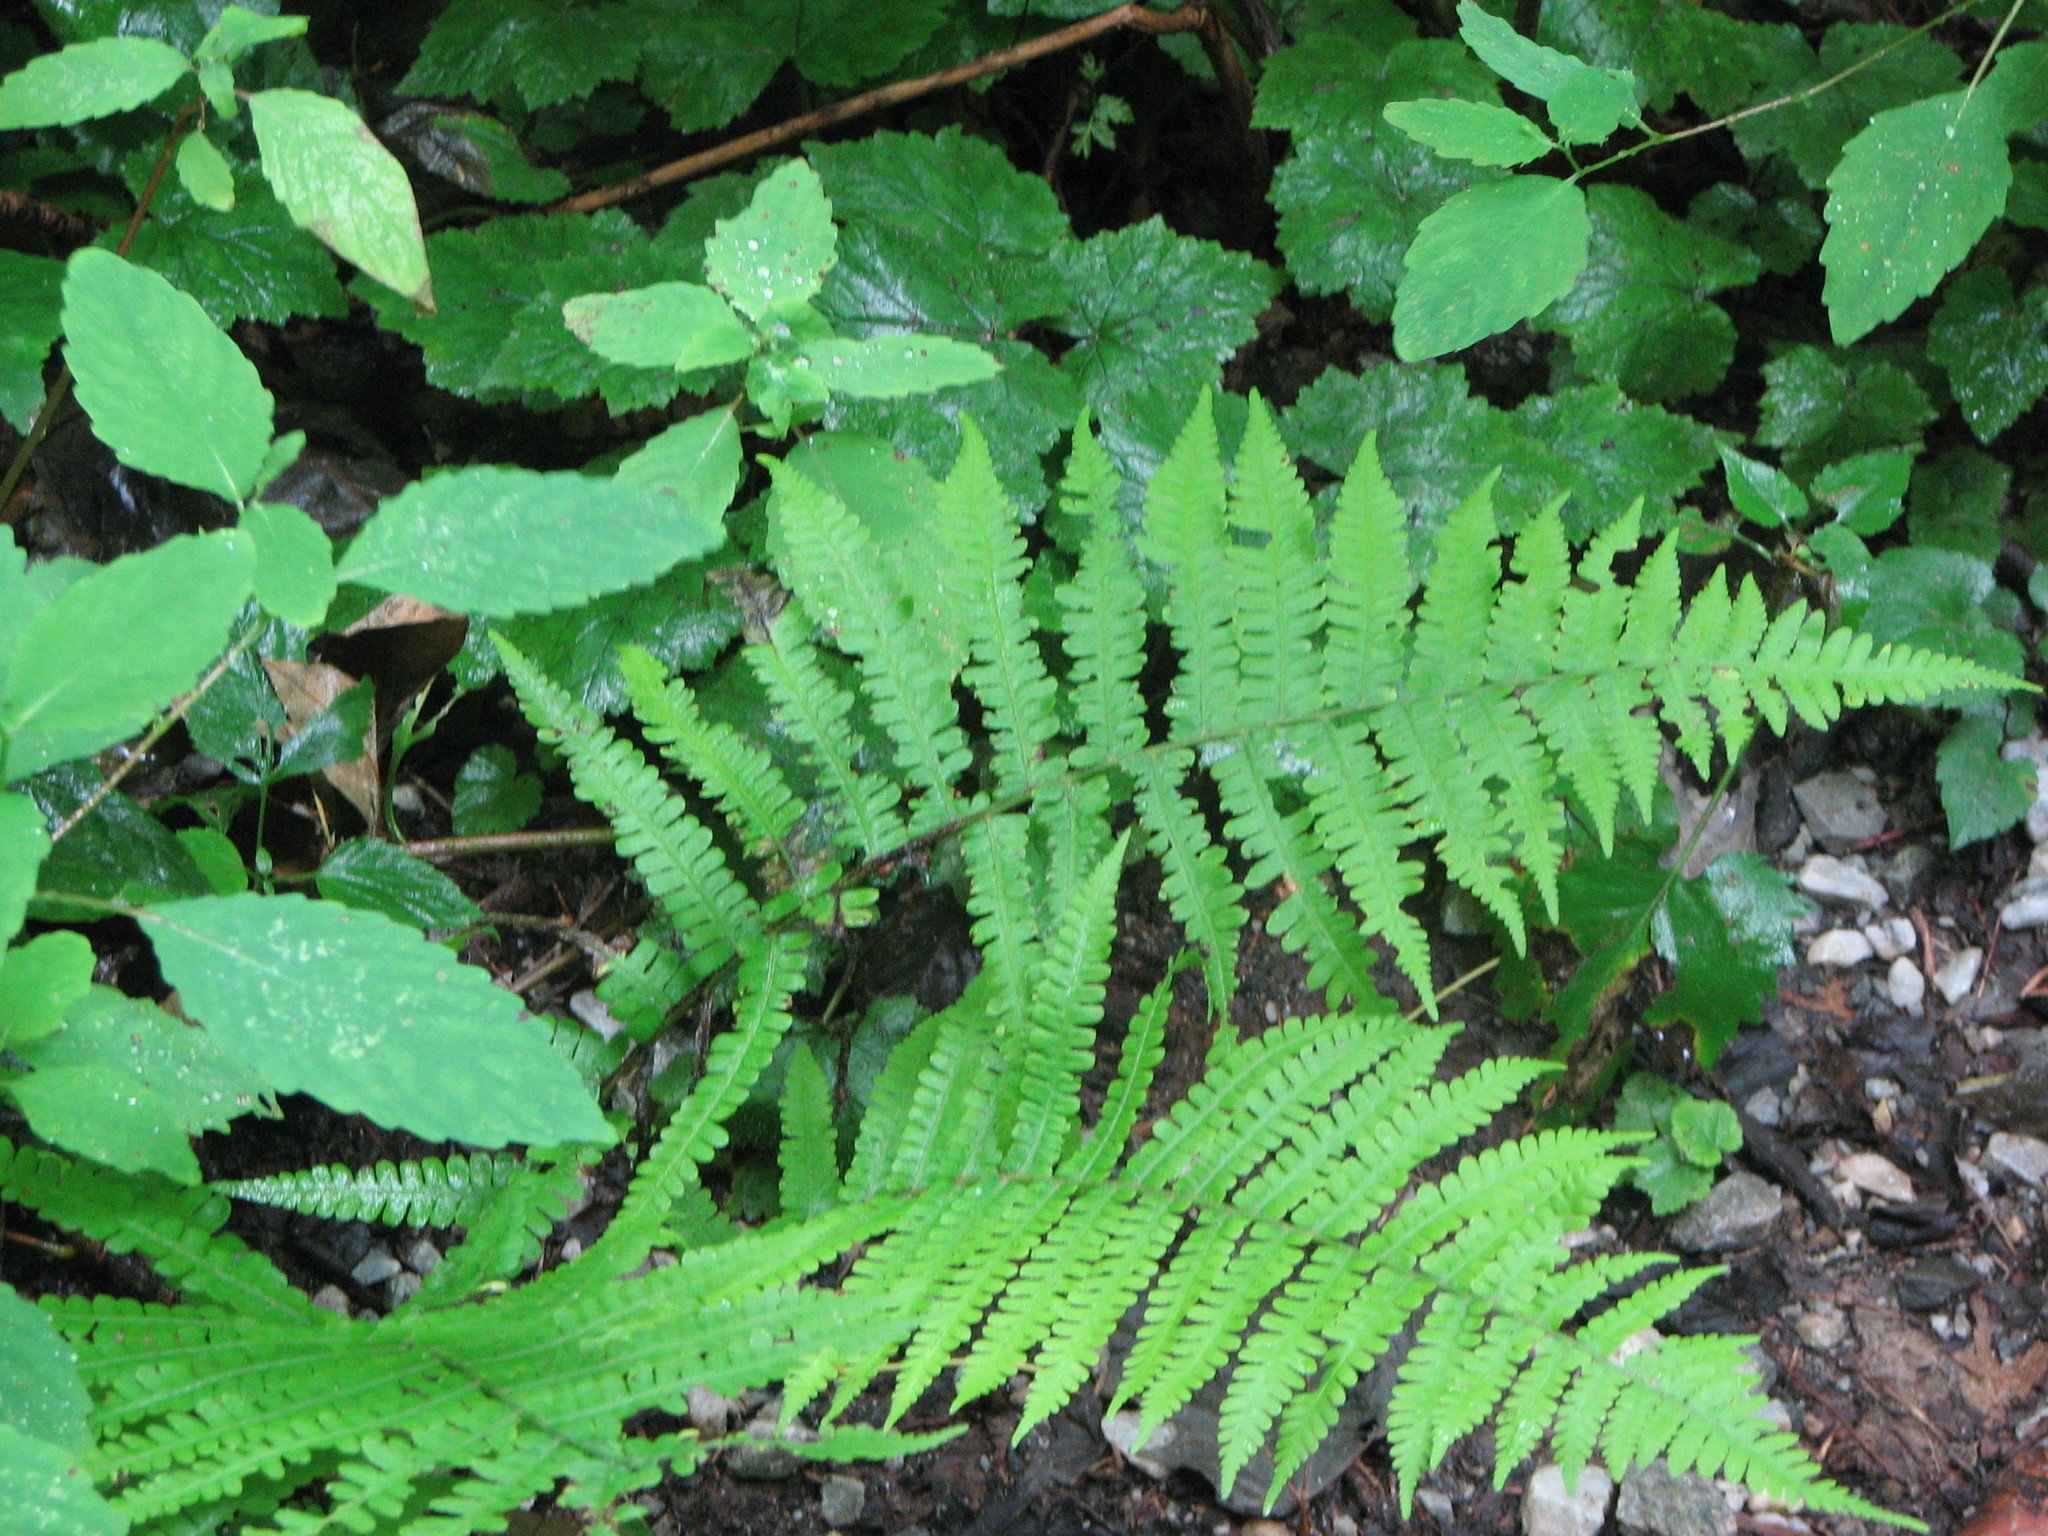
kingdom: Plantae
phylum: Tracheophyta
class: Polypodiopsida
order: Polypodiales
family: Athyriaceae
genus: Deparia
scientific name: Deparia acrostichoides
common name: Silver false spleenwort
